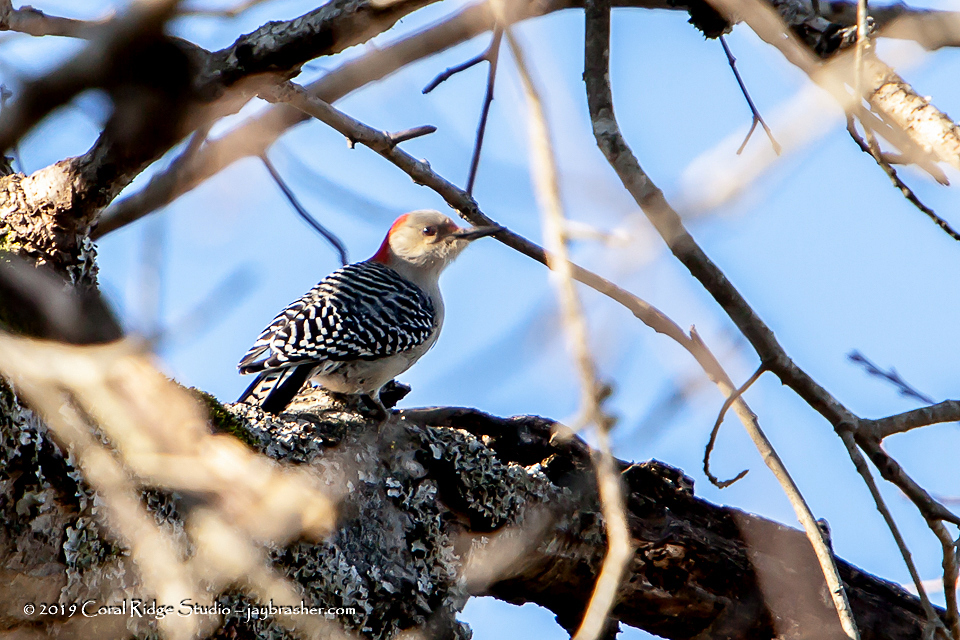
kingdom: Animalia
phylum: Chordata
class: Aves
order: Piciformes
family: Picidae
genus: Melanerpes
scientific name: Melanerpes carolinus
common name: Red-bellied woodpecker
